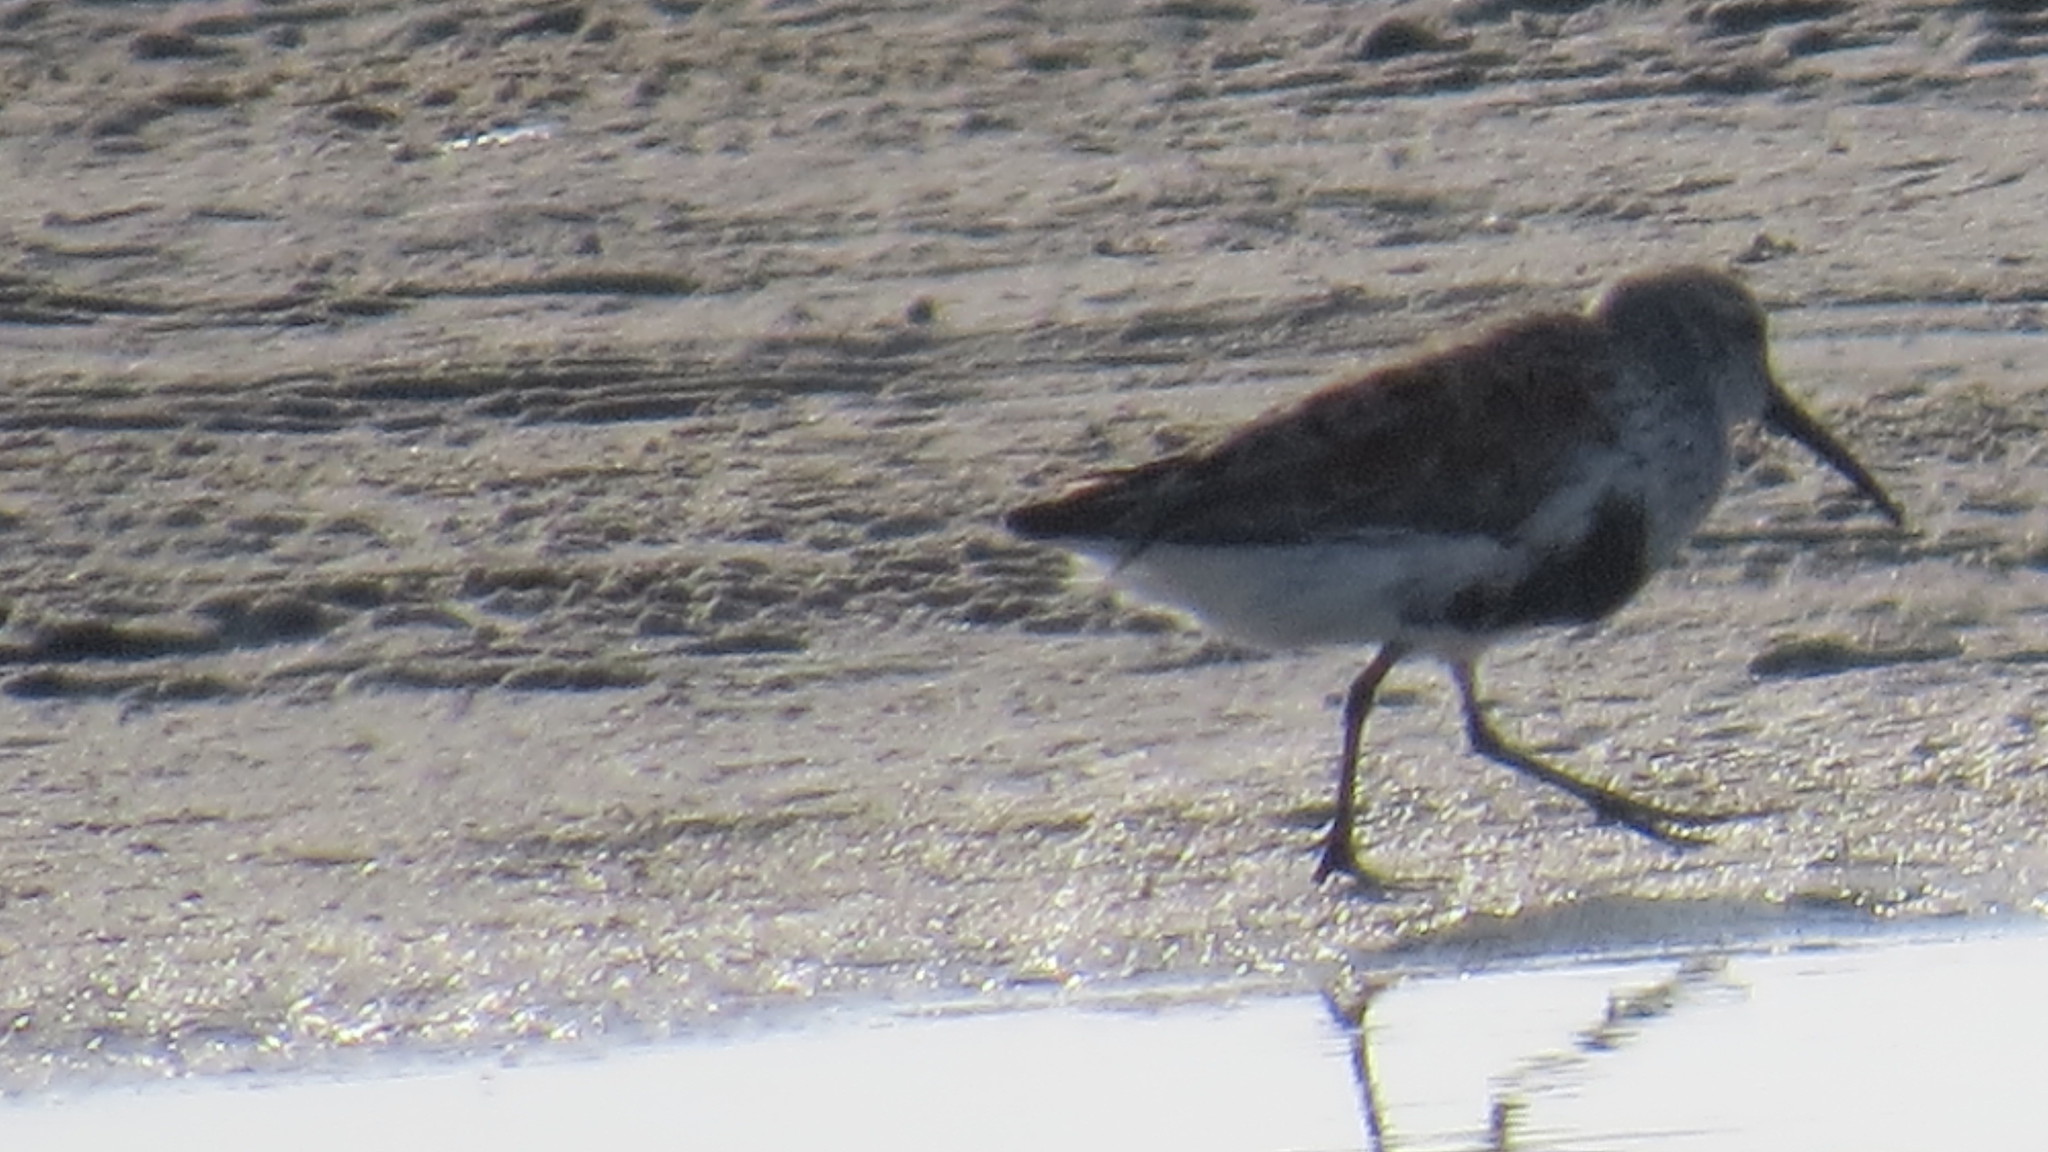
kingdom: Animalia
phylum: Chordata
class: Aves
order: Charadriiformes
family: Scolopacidae
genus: Calidris
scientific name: Calidris alpina
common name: Dunlin
